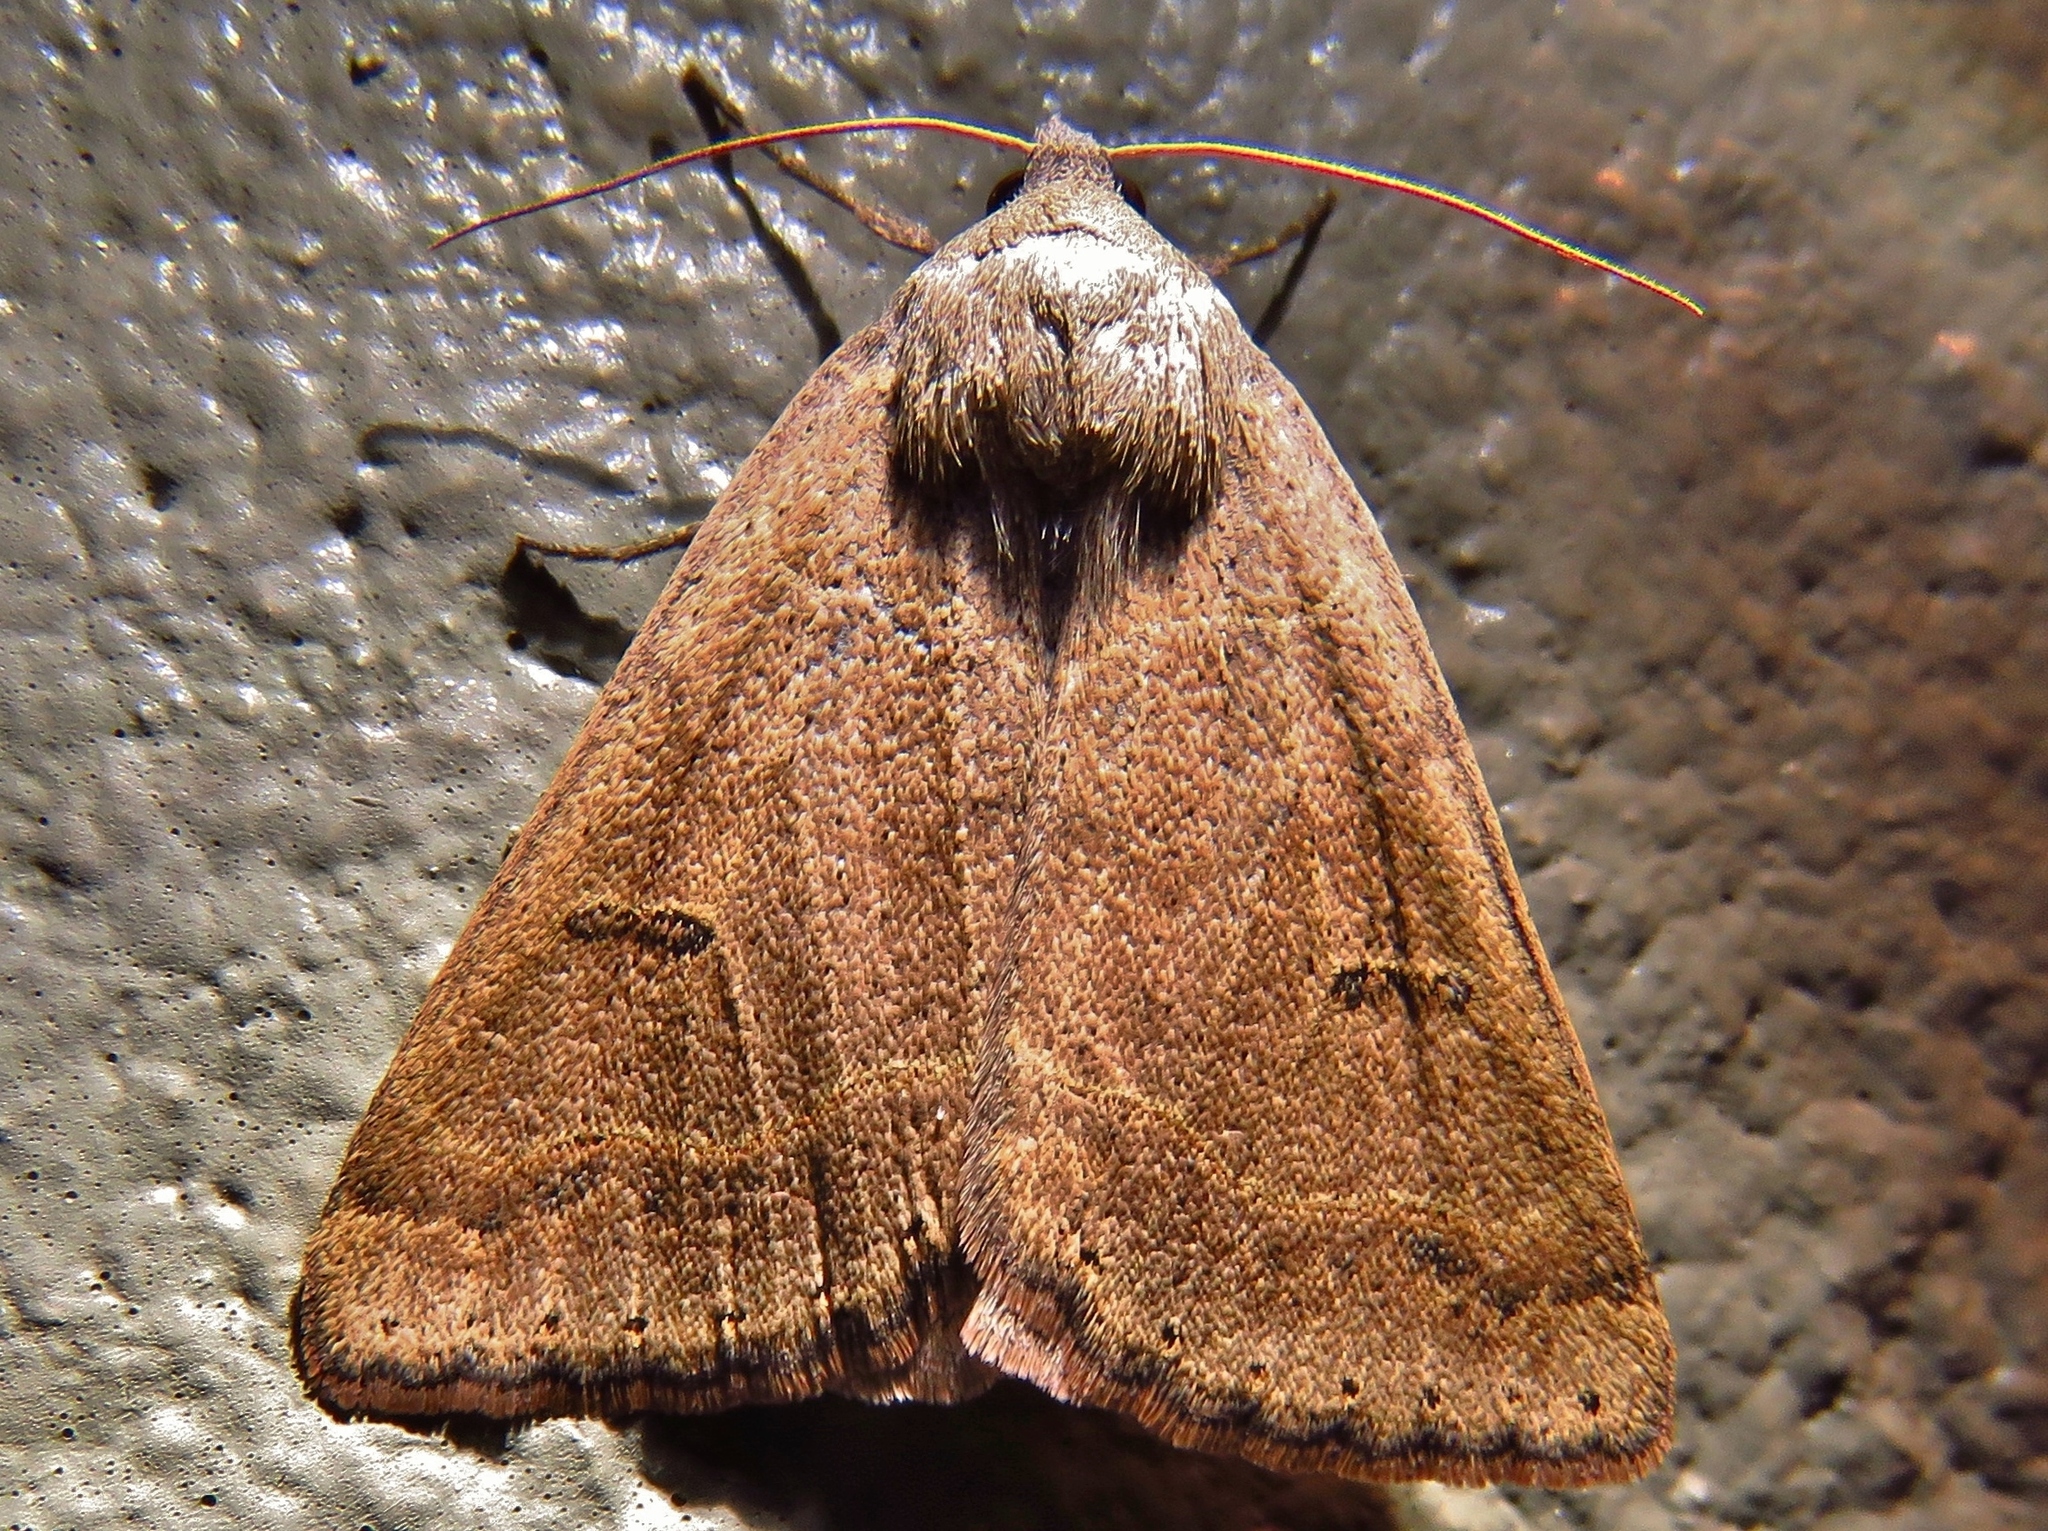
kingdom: Animalia
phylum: Arthropoda
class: Insecta
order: Lepidoptera
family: Erebidae
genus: Phoberia
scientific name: Phoberia atomaris
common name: Common oak moth
